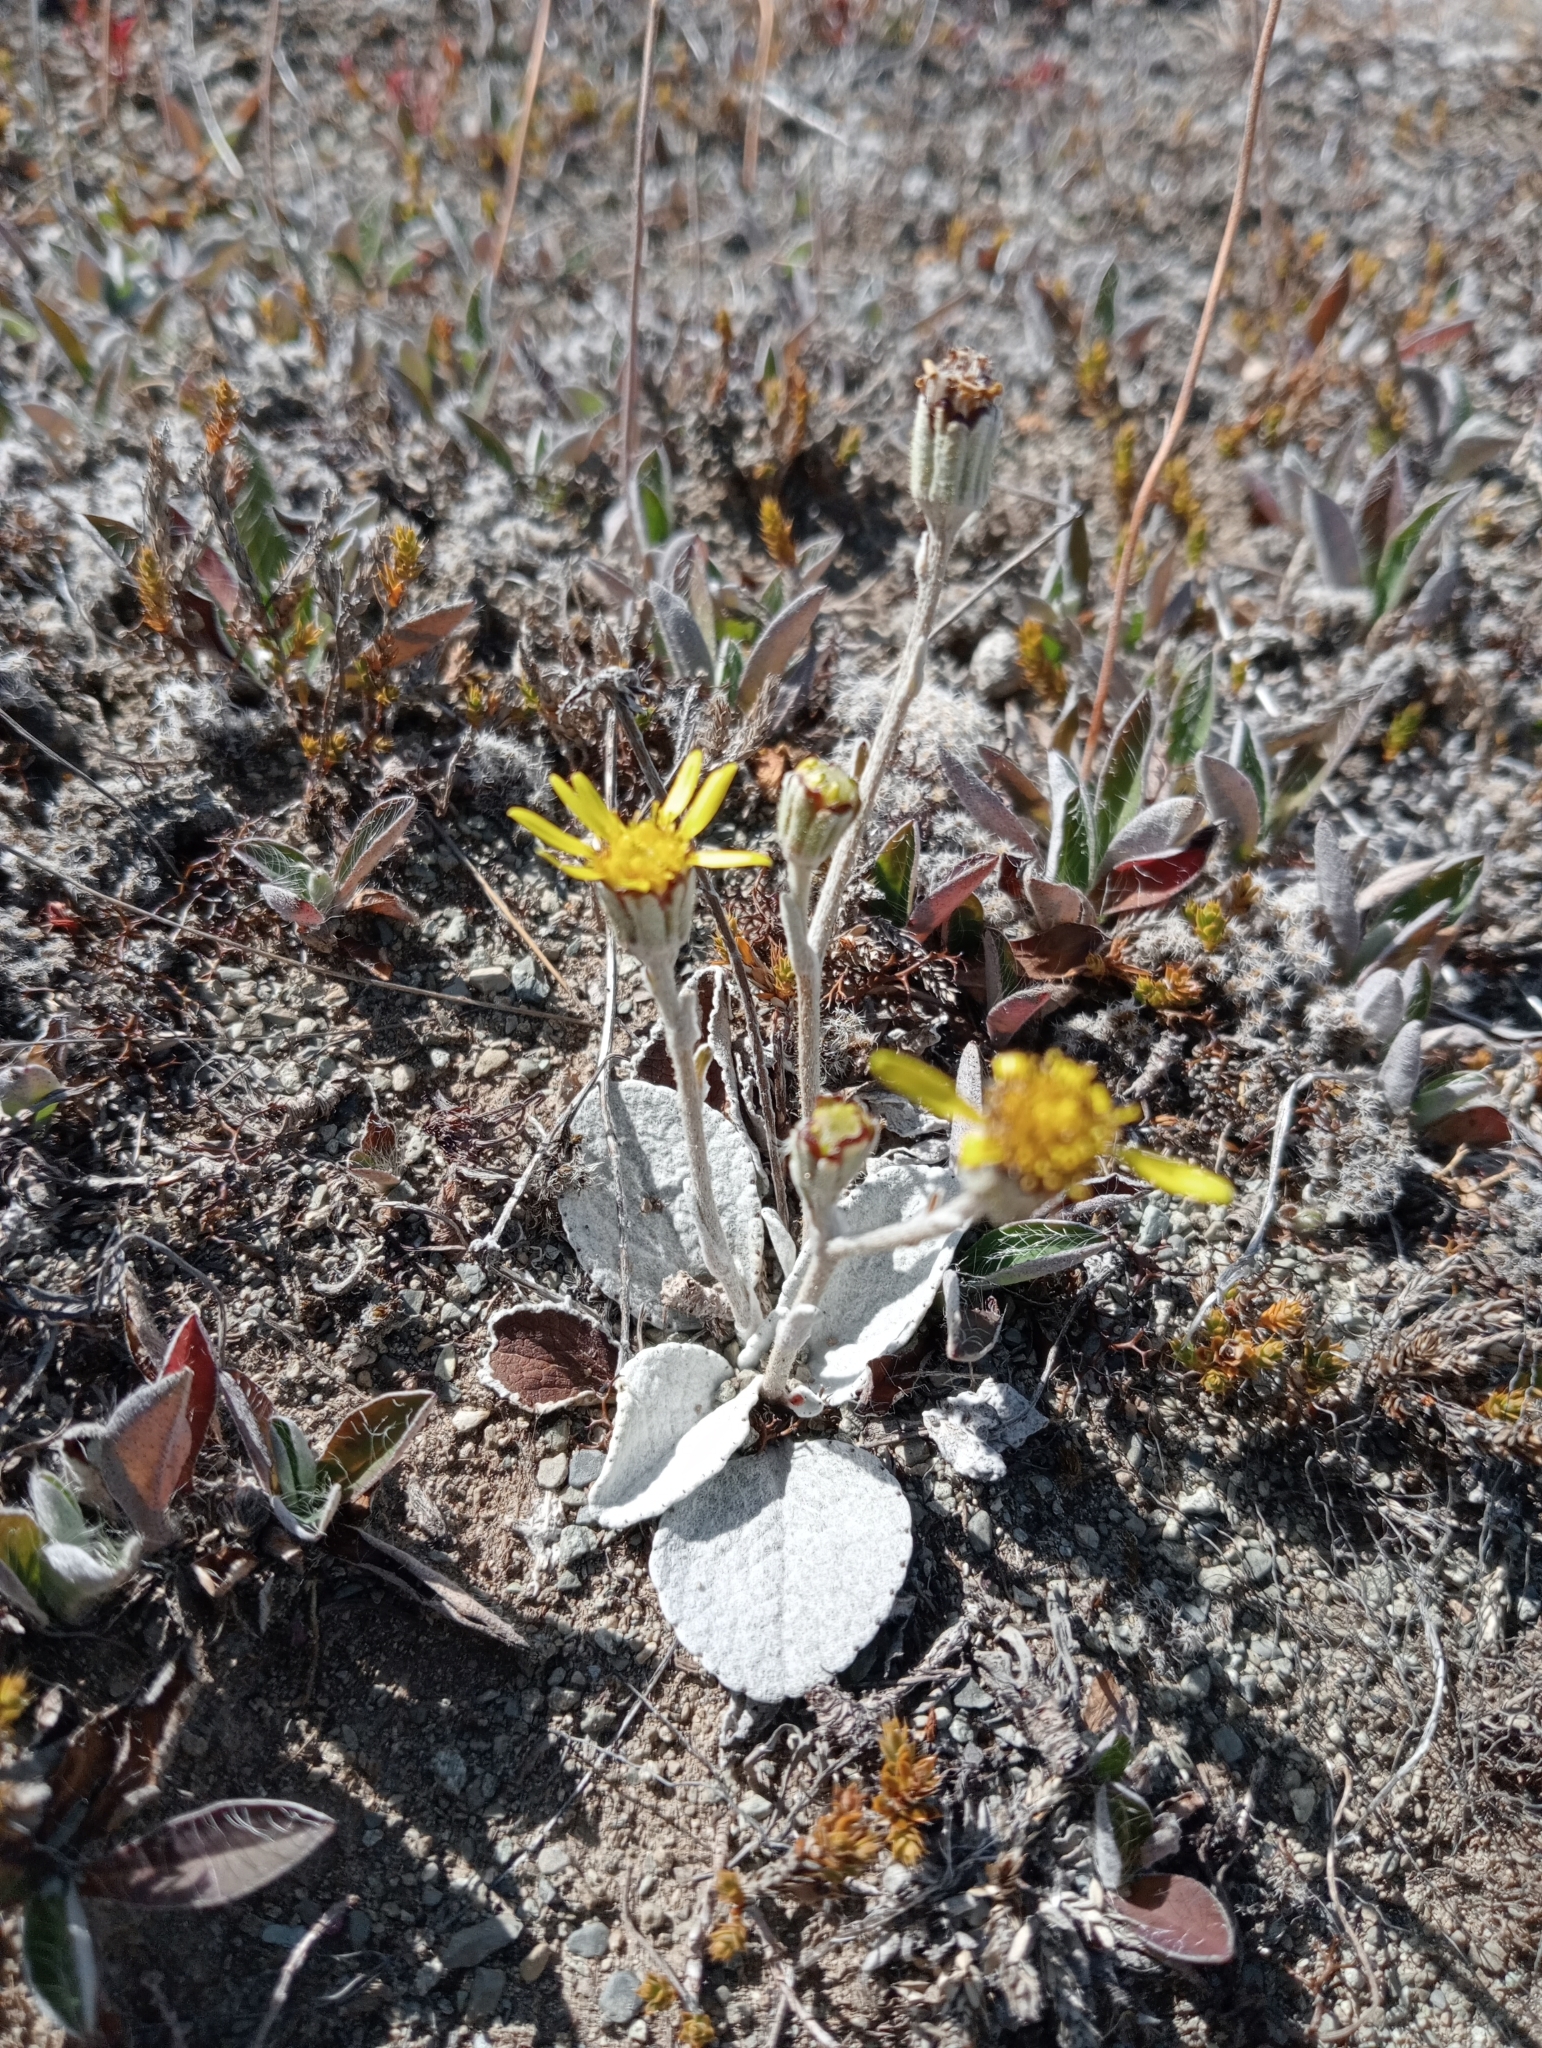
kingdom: Plantae
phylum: Tracheophyta
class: Magnoliopsida
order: Asterales
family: Asteraceae
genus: Brachyglottis
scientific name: Brachyglottis haastii
